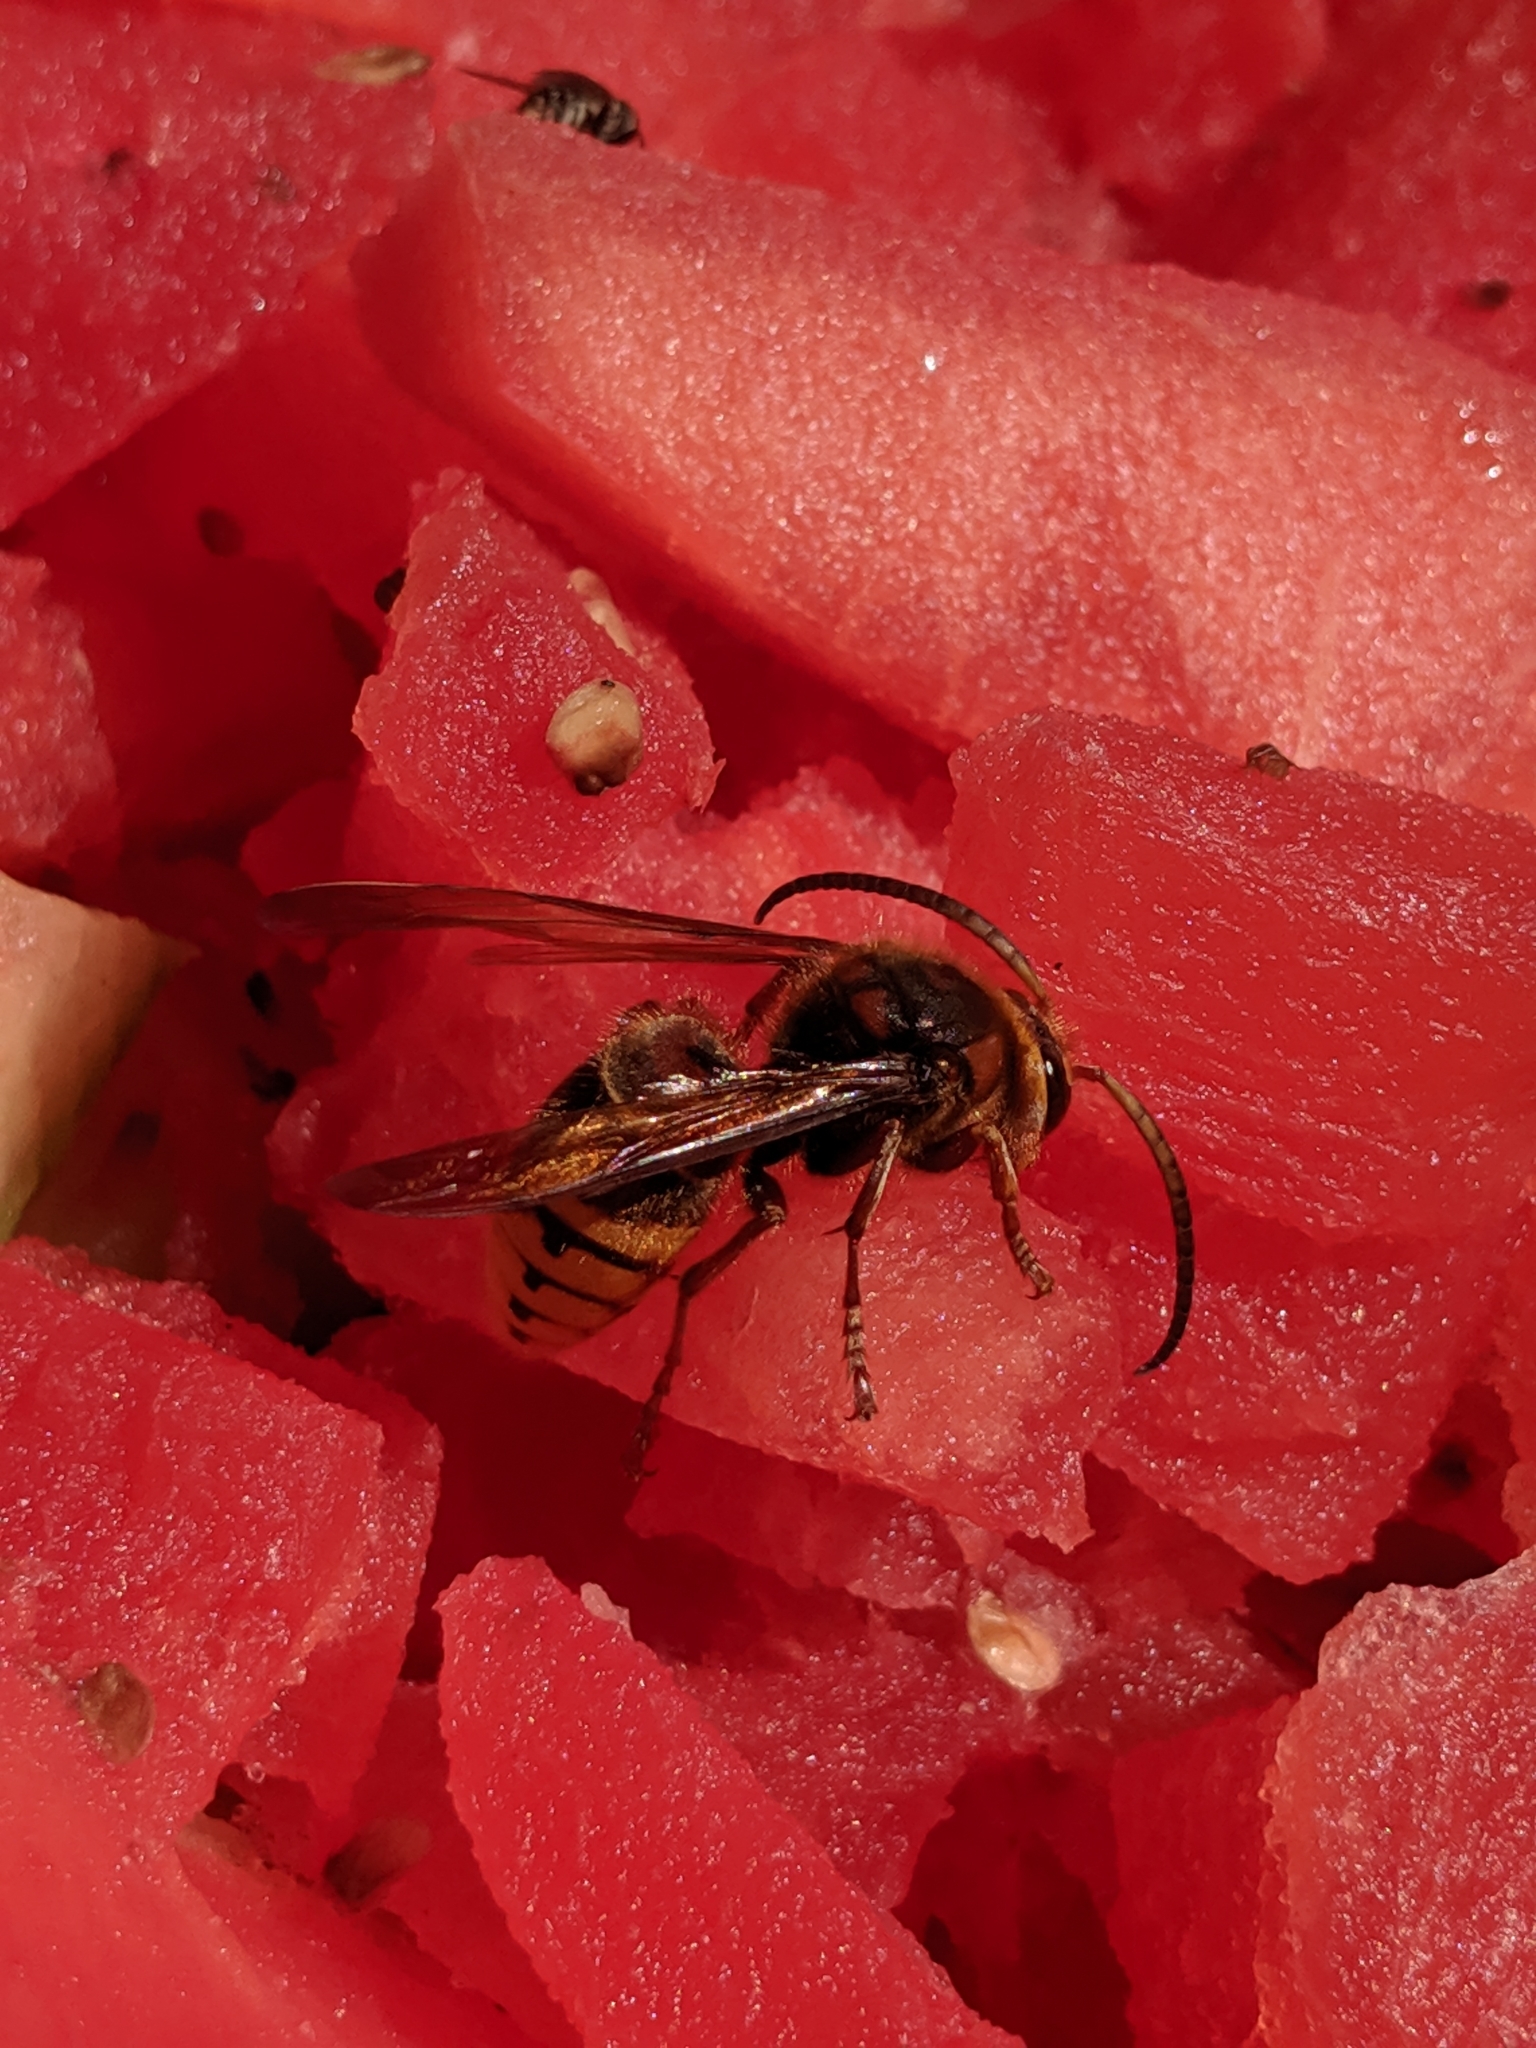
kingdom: Animalia
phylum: Arthropoda
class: Insecta
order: Hymenoptera
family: Vespidae
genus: Vespa
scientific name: Vespa crabro
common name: Hornet
